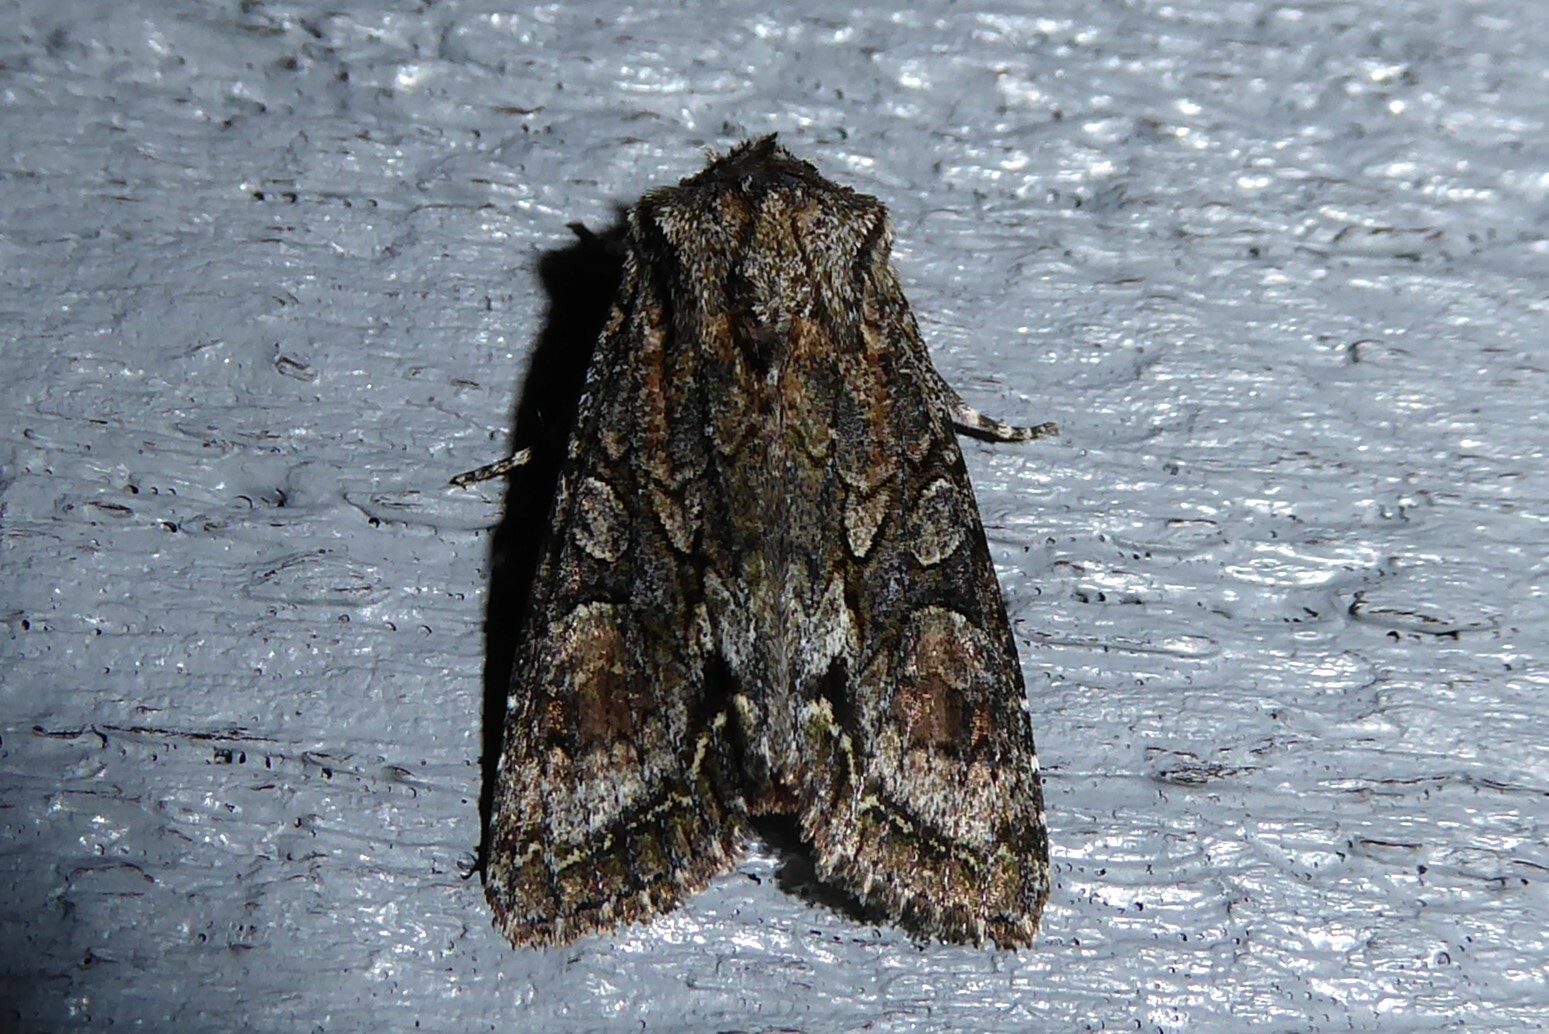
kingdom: Animalia
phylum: Arthropoda
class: Insecta
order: Lepidoptera
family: Noctuidae
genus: Ichneutica
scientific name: Ichneutica mutans
